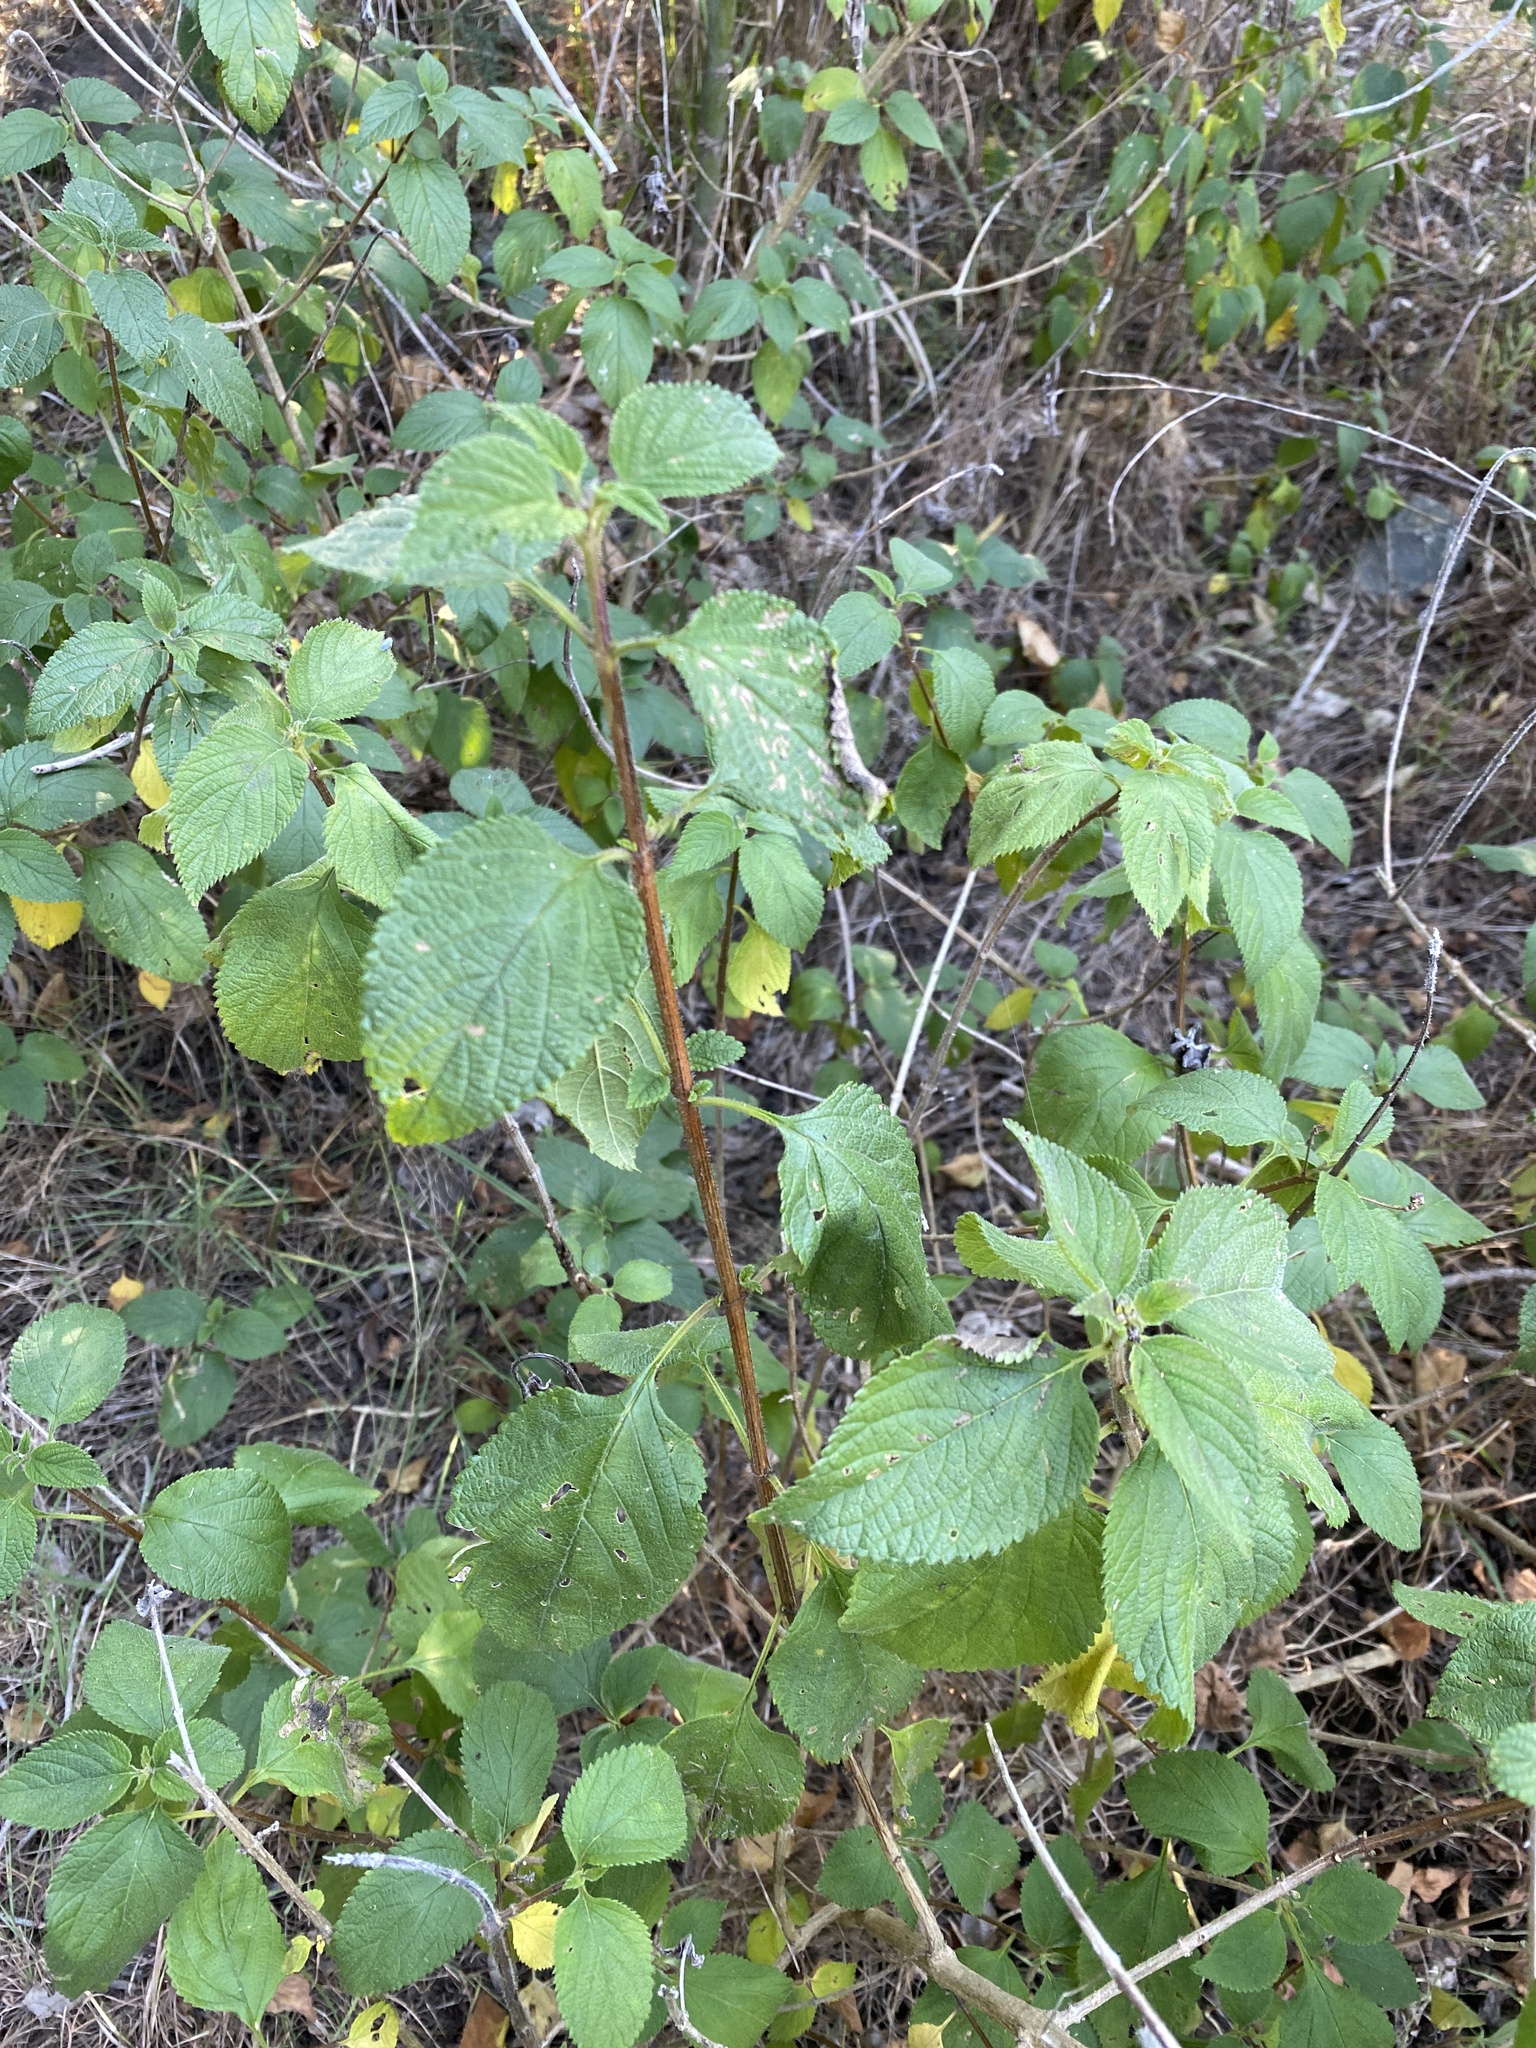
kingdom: Plantae
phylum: Tracheophyta
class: Magnoliopsida
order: Lamiales
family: Verbenaceae
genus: Lantana
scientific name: Lantana camara
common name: Lantana
